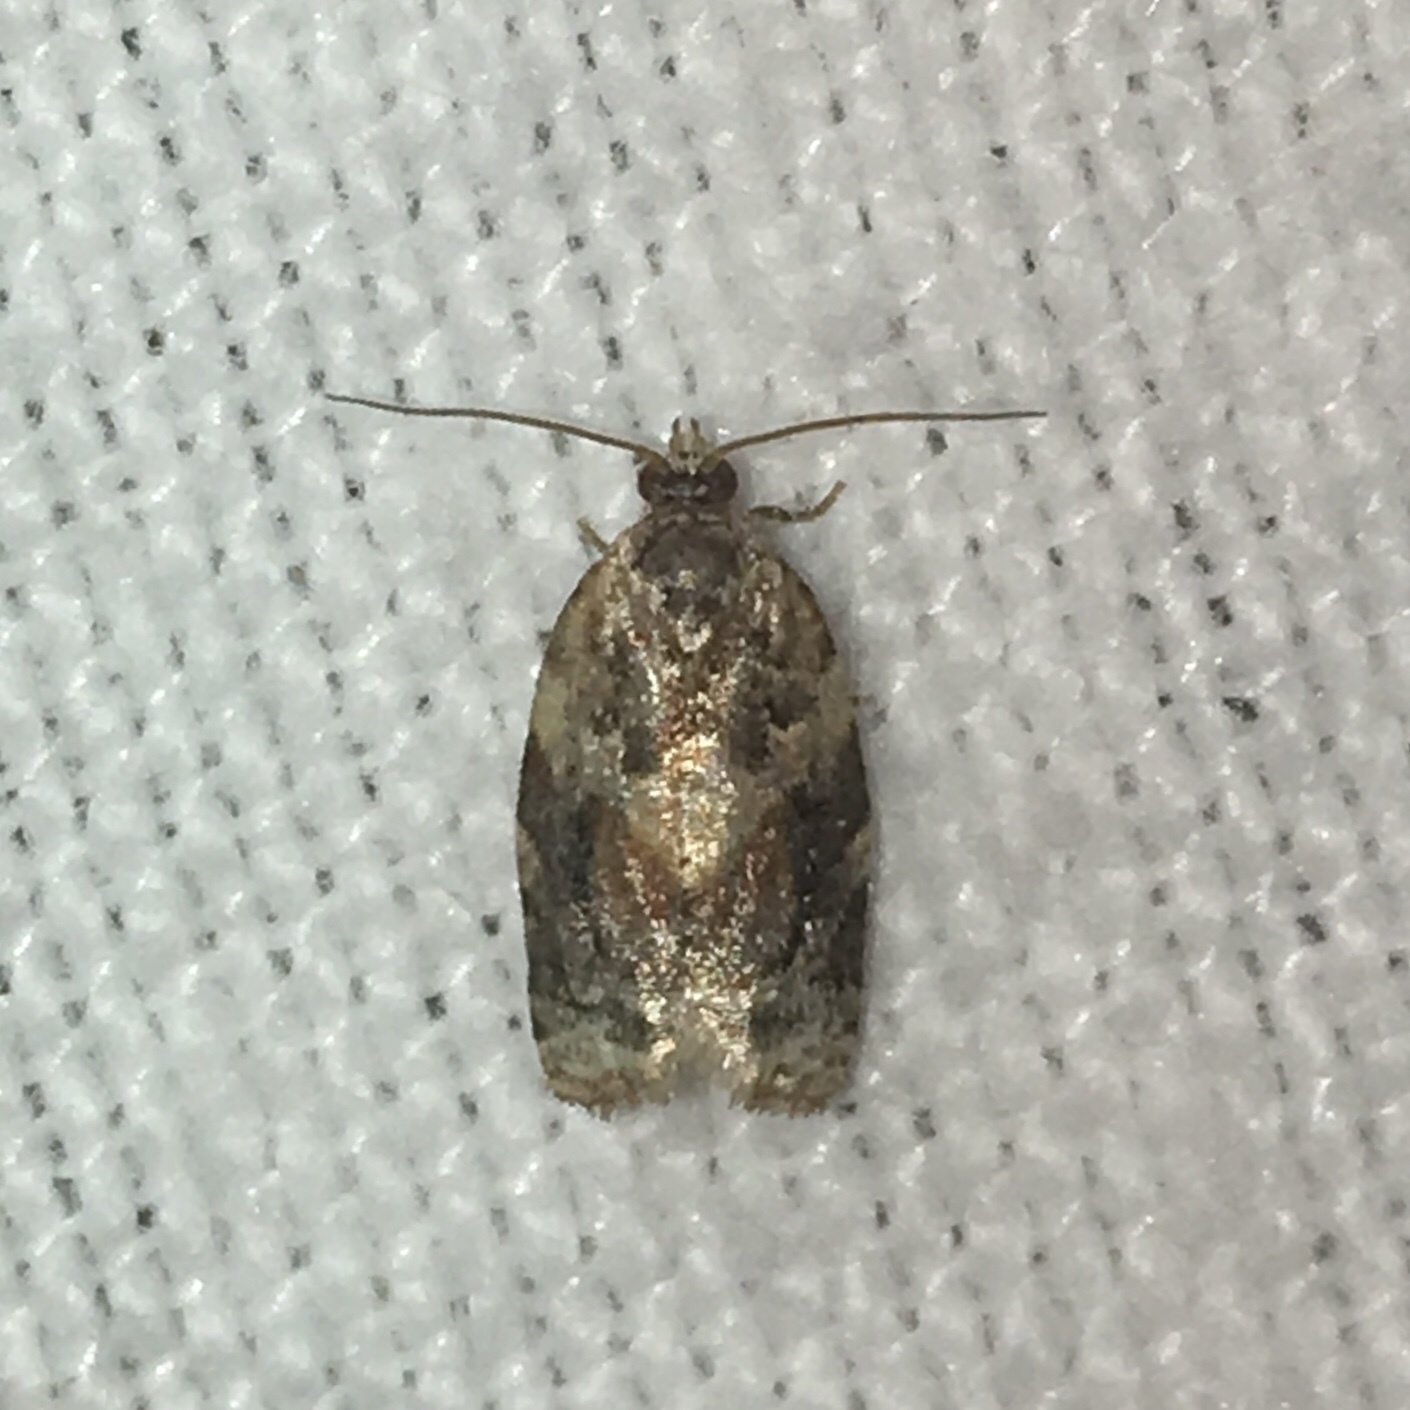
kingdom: Animalia
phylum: Arthropoda
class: Insecta
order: Lepidoptera
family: Tortricidae
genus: Argyrotaenia
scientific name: Argyrotaenia velutinana
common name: Red-banded leafroller moth
